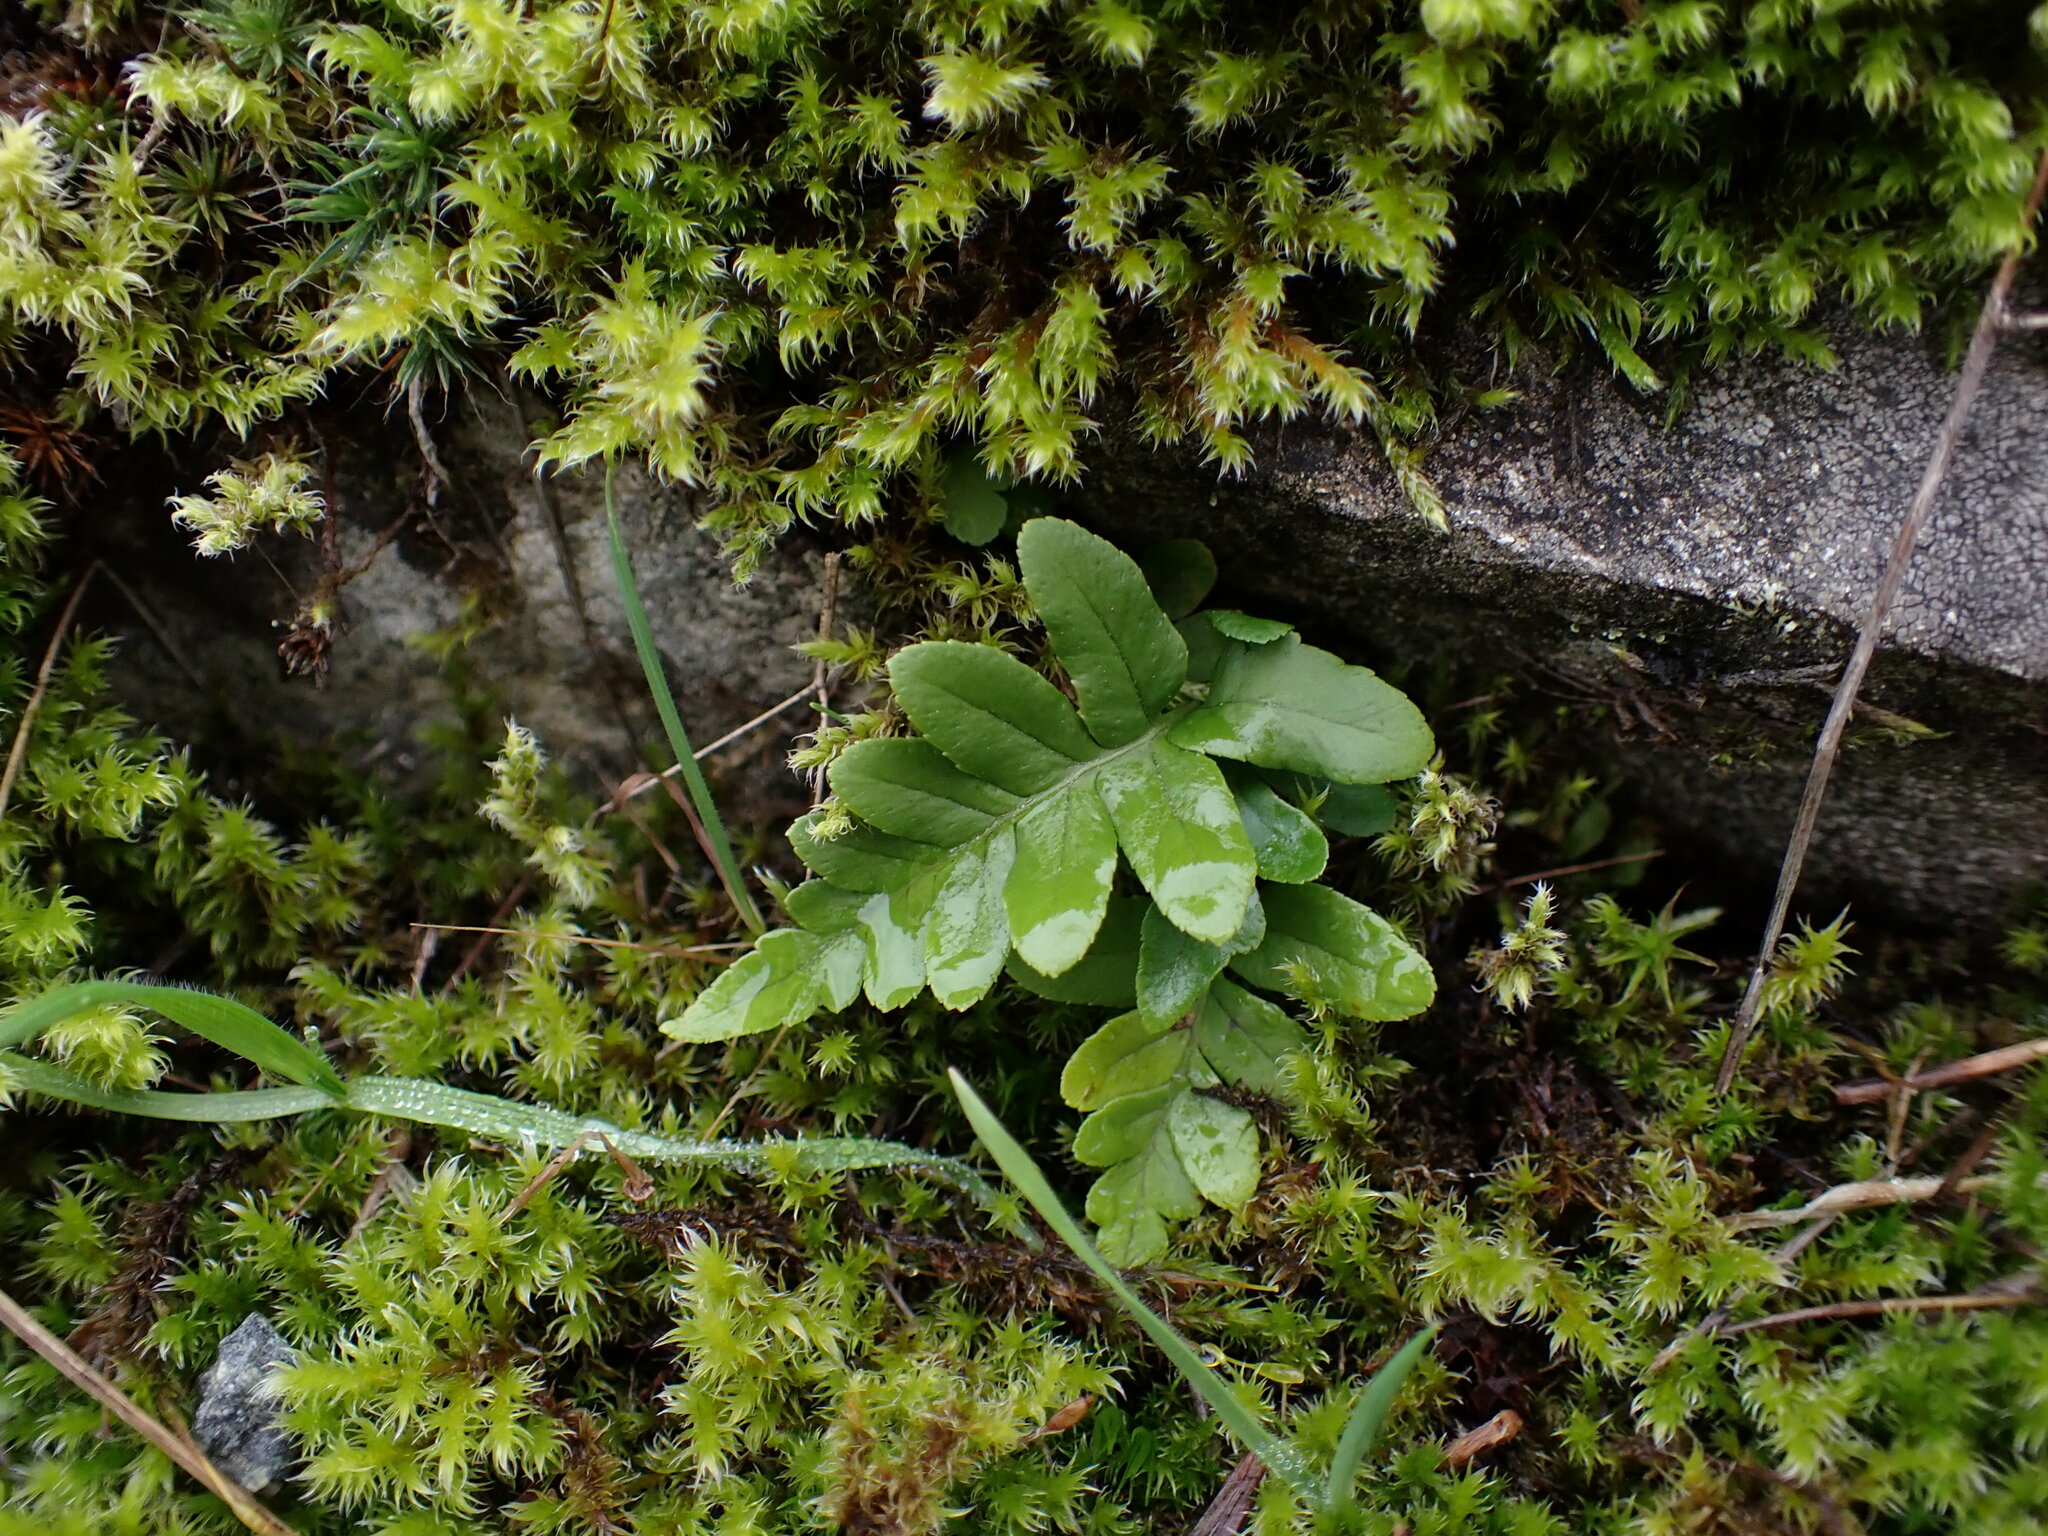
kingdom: Plantae
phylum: Tracheophyta
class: Polypodiopsida
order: Polypodiales
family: Polypodiaceae
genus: Polypodium
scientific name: Polypodium glycyrrhiza
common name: Licorice fern
